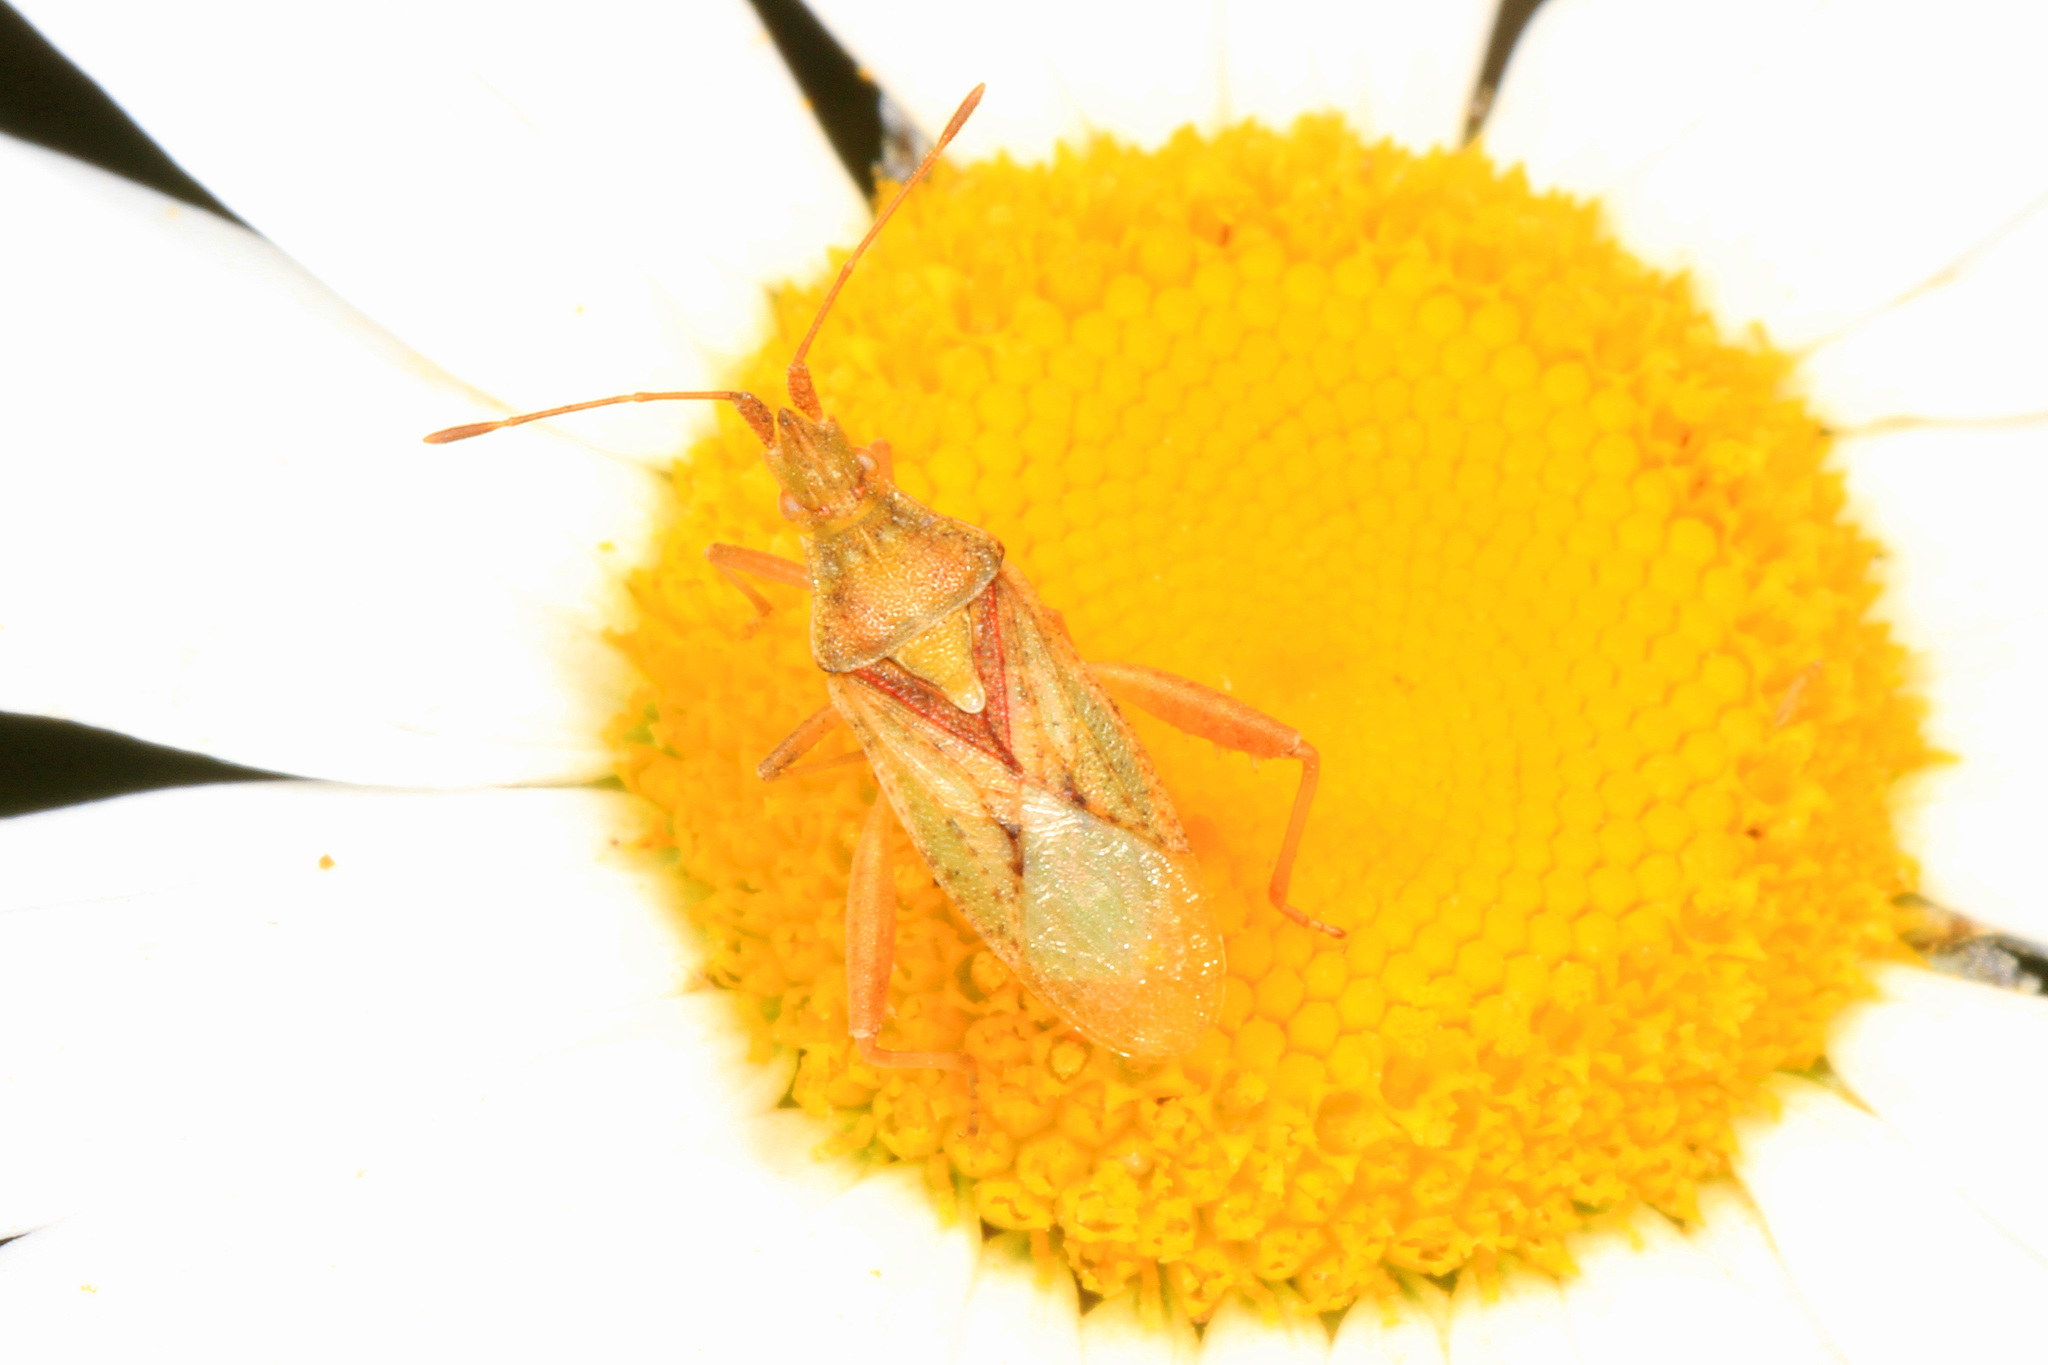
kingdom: Animalia
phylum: Arthropoda
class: Insecta
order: Hemiptera
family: Rhopalidae
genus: Harmostes
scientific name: Harmostes reflexulus
